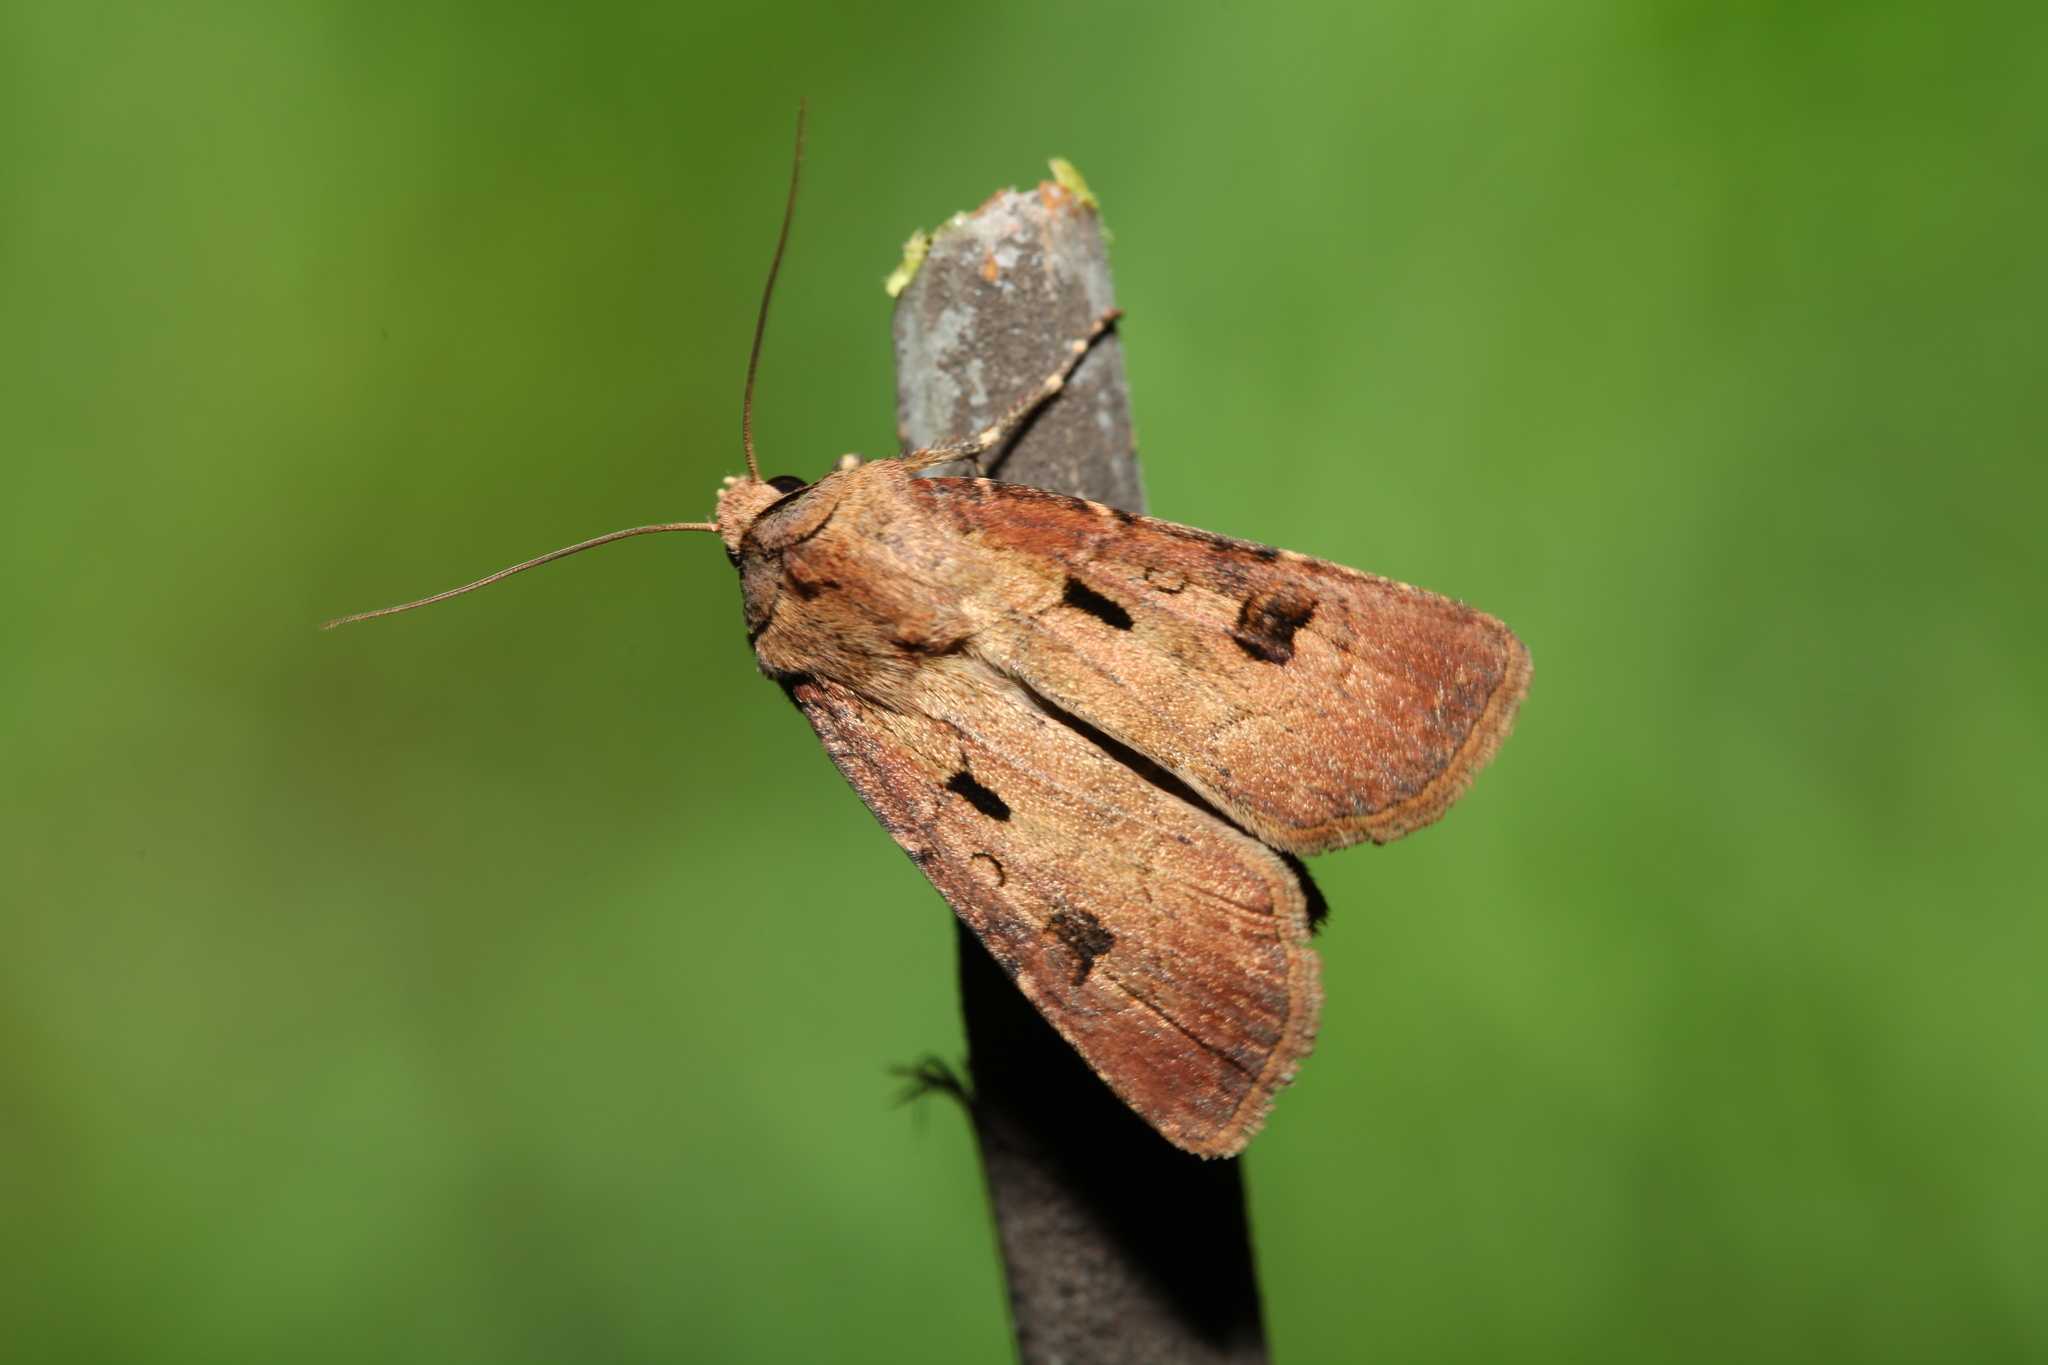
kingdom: Animalia
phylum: Arthropoda
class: Insecta
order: Lepidoptera
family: Noctuidae
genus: Agrotis
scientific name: Agrotis exclamationis
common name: Heart and dart
